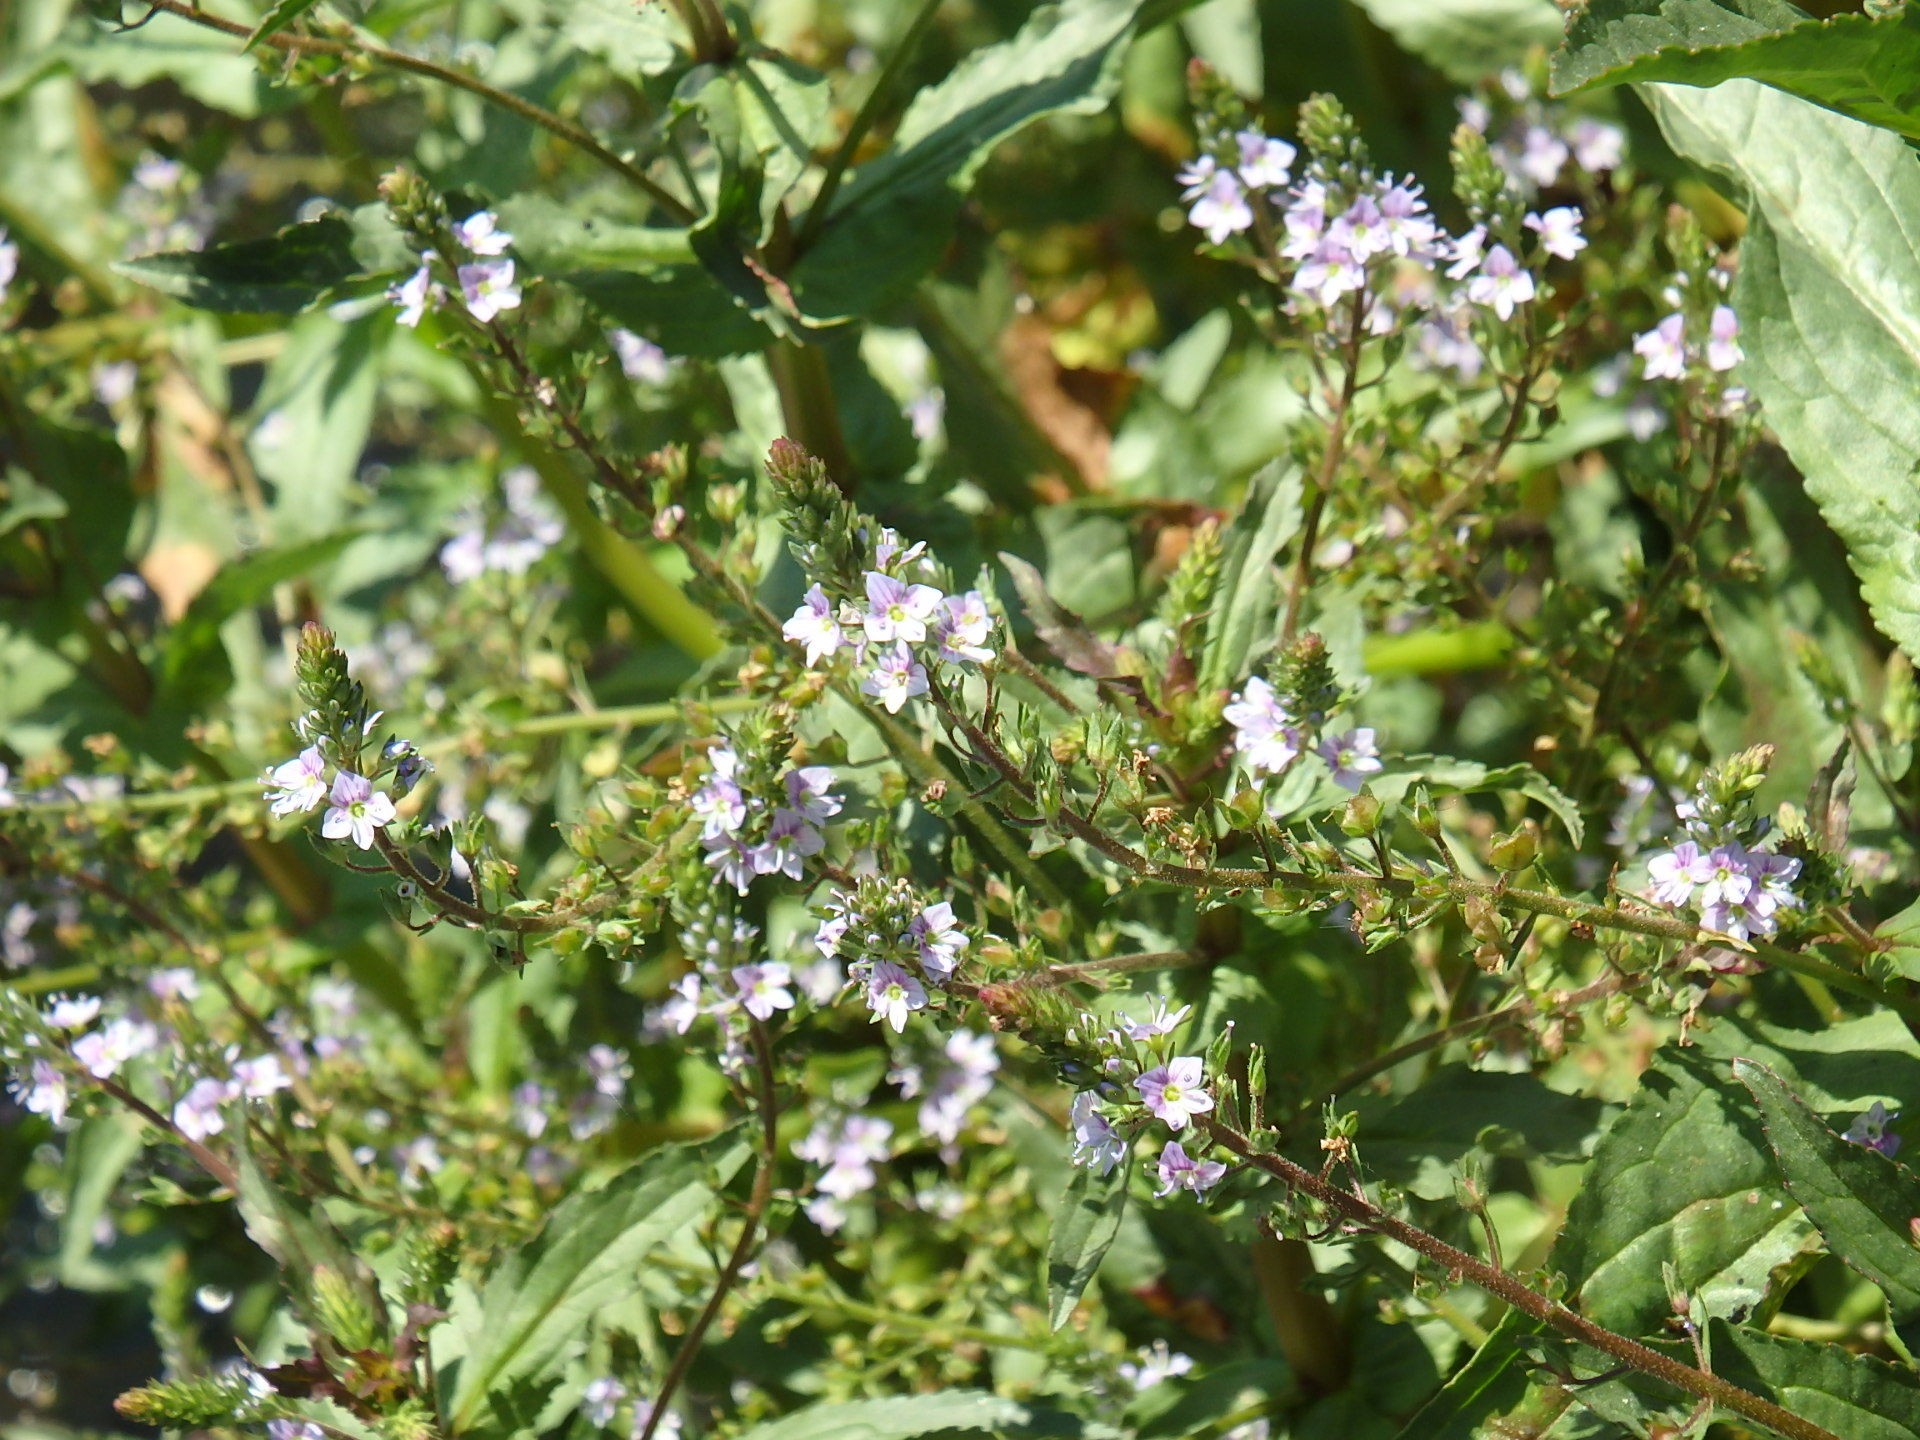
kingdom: Plantae
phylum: Tracheophyta
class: Magnoliopsida
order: Lamiales
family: Plantaginaceae
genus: Veronica
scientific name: Veronica anagallis-aquatica
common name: Water speedwell
